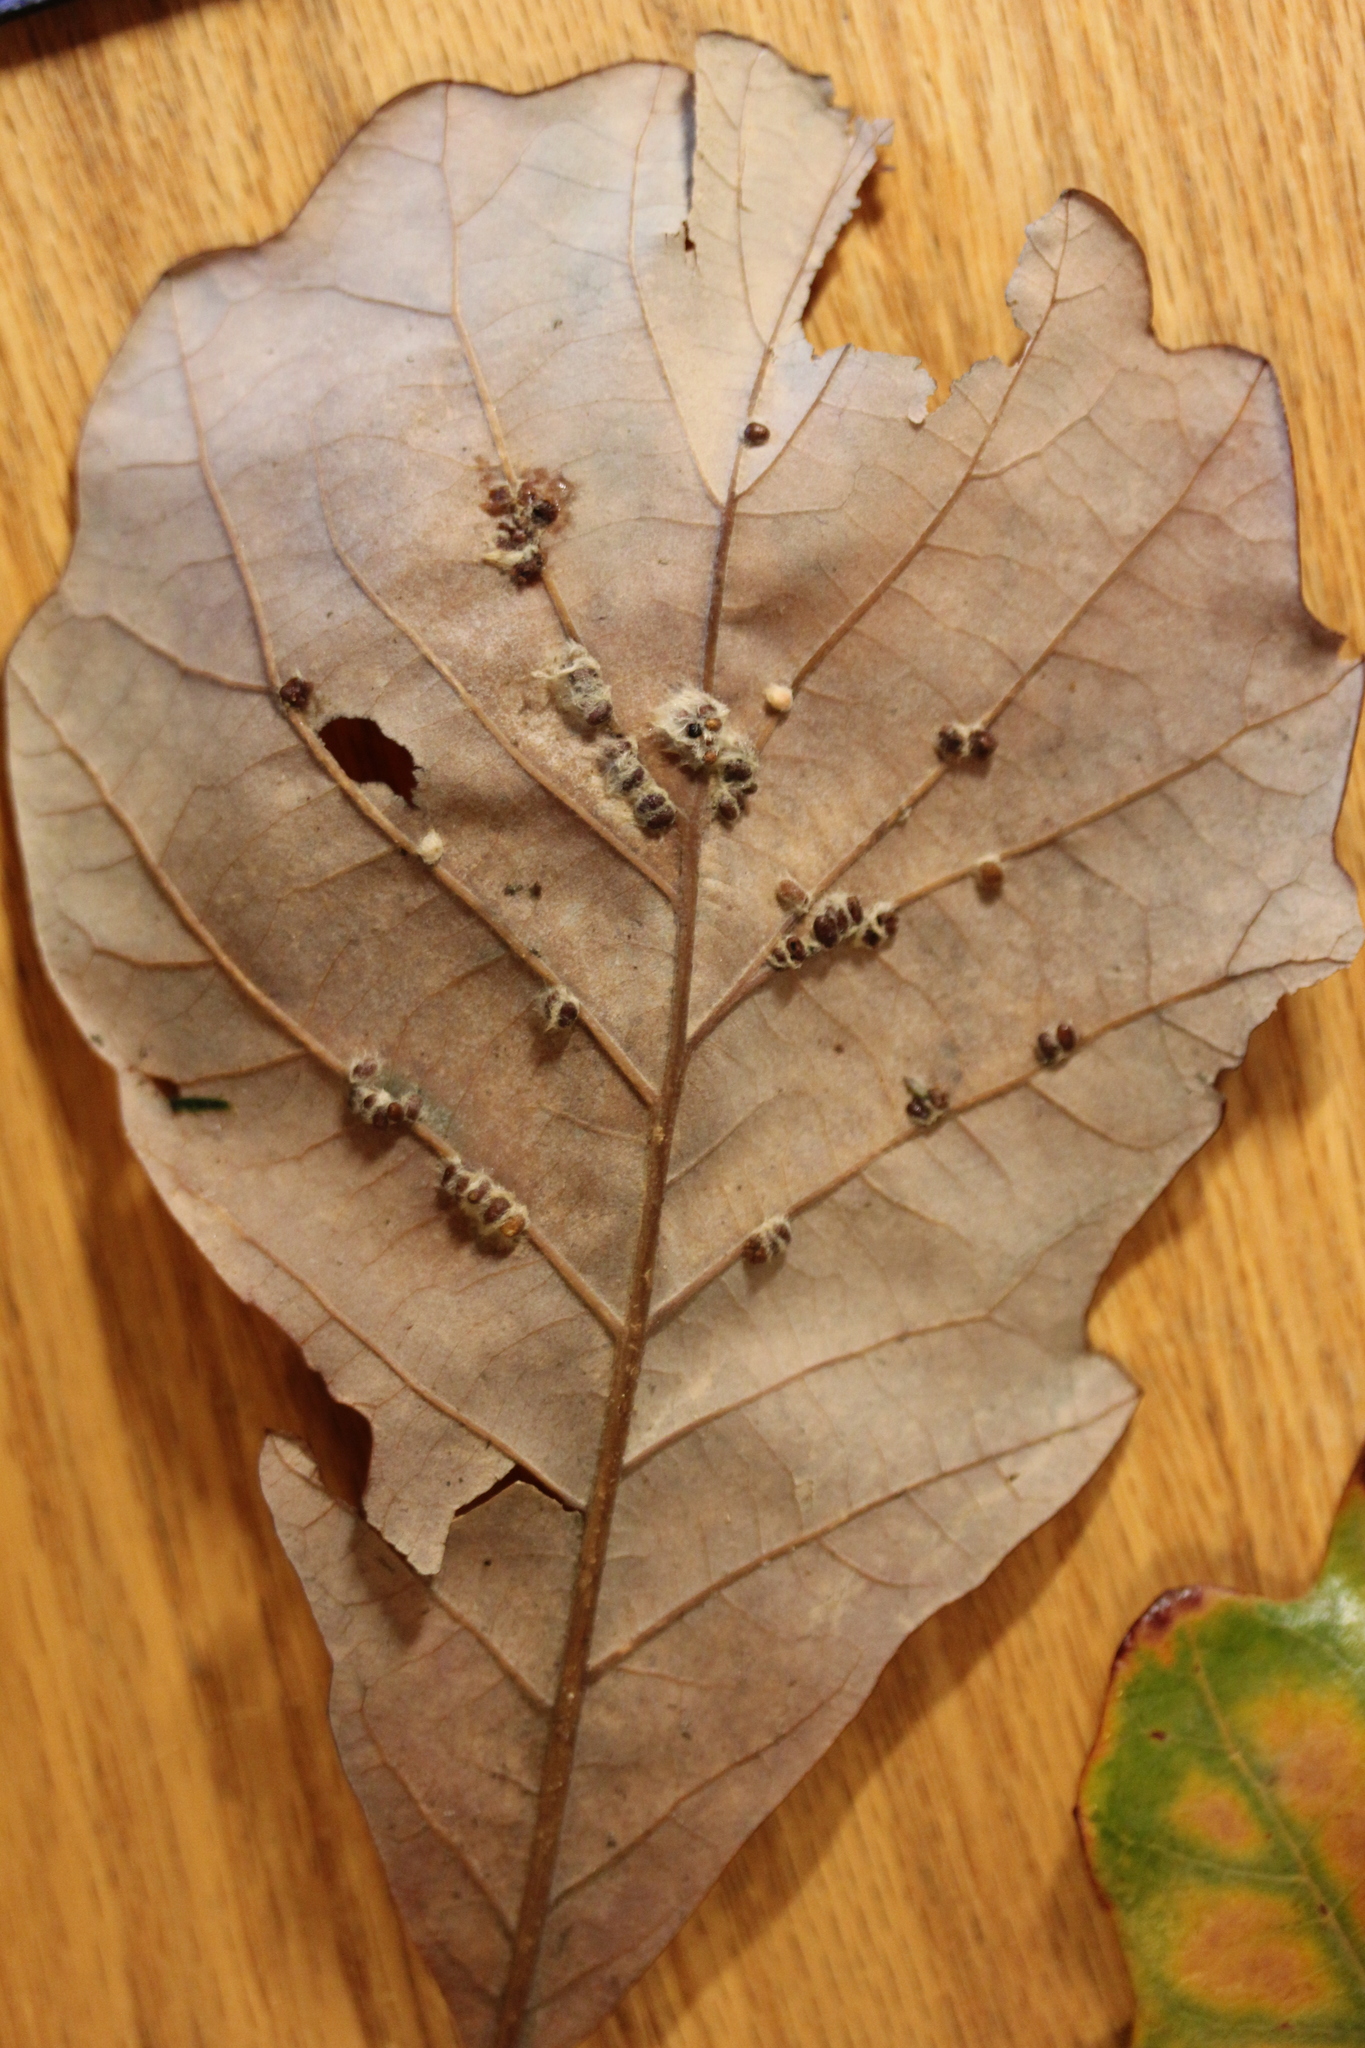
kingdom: Animalia
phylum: Arthropoda
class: Insecta
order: Hymenoptera
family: Cynipidae
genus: Andricus
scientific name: Andricus Druon ignotum
